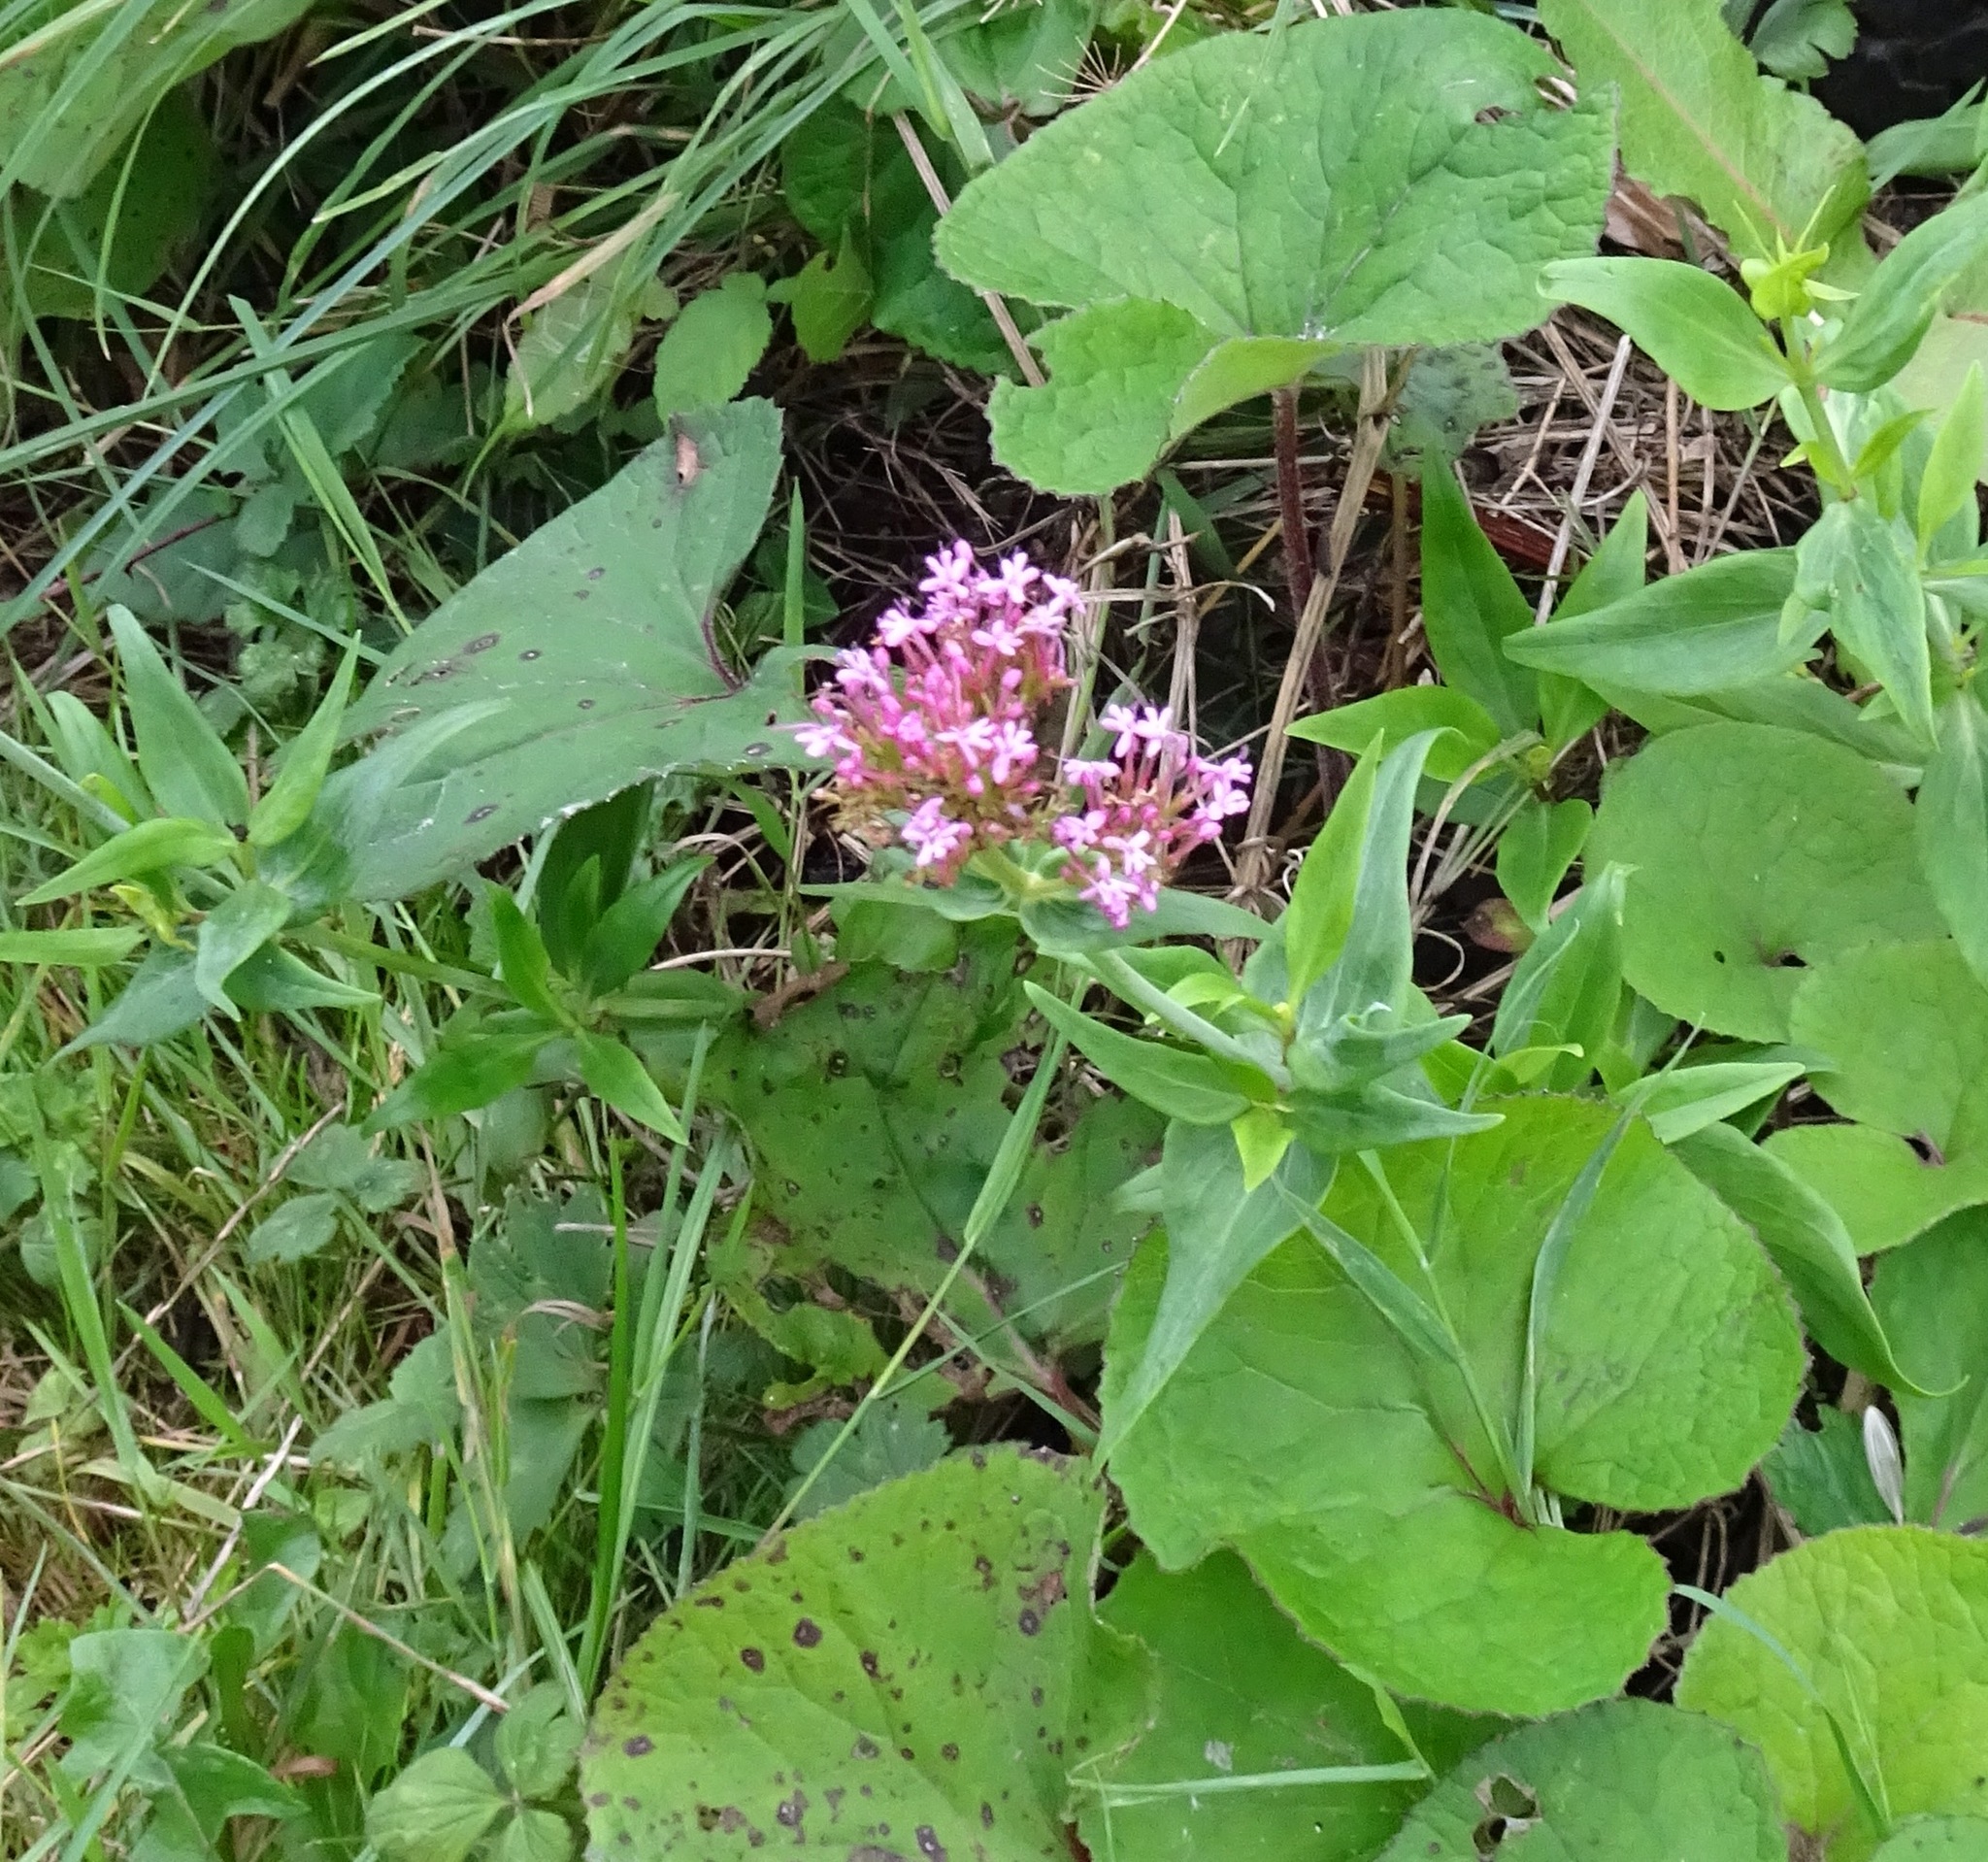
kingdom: Plantae
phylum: Tracheophyta
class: Magnoliopsida
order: Dipsacales
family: Caprifoliaceae
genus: Centranthus
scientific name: Centranthus ruber
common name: Red valerian
